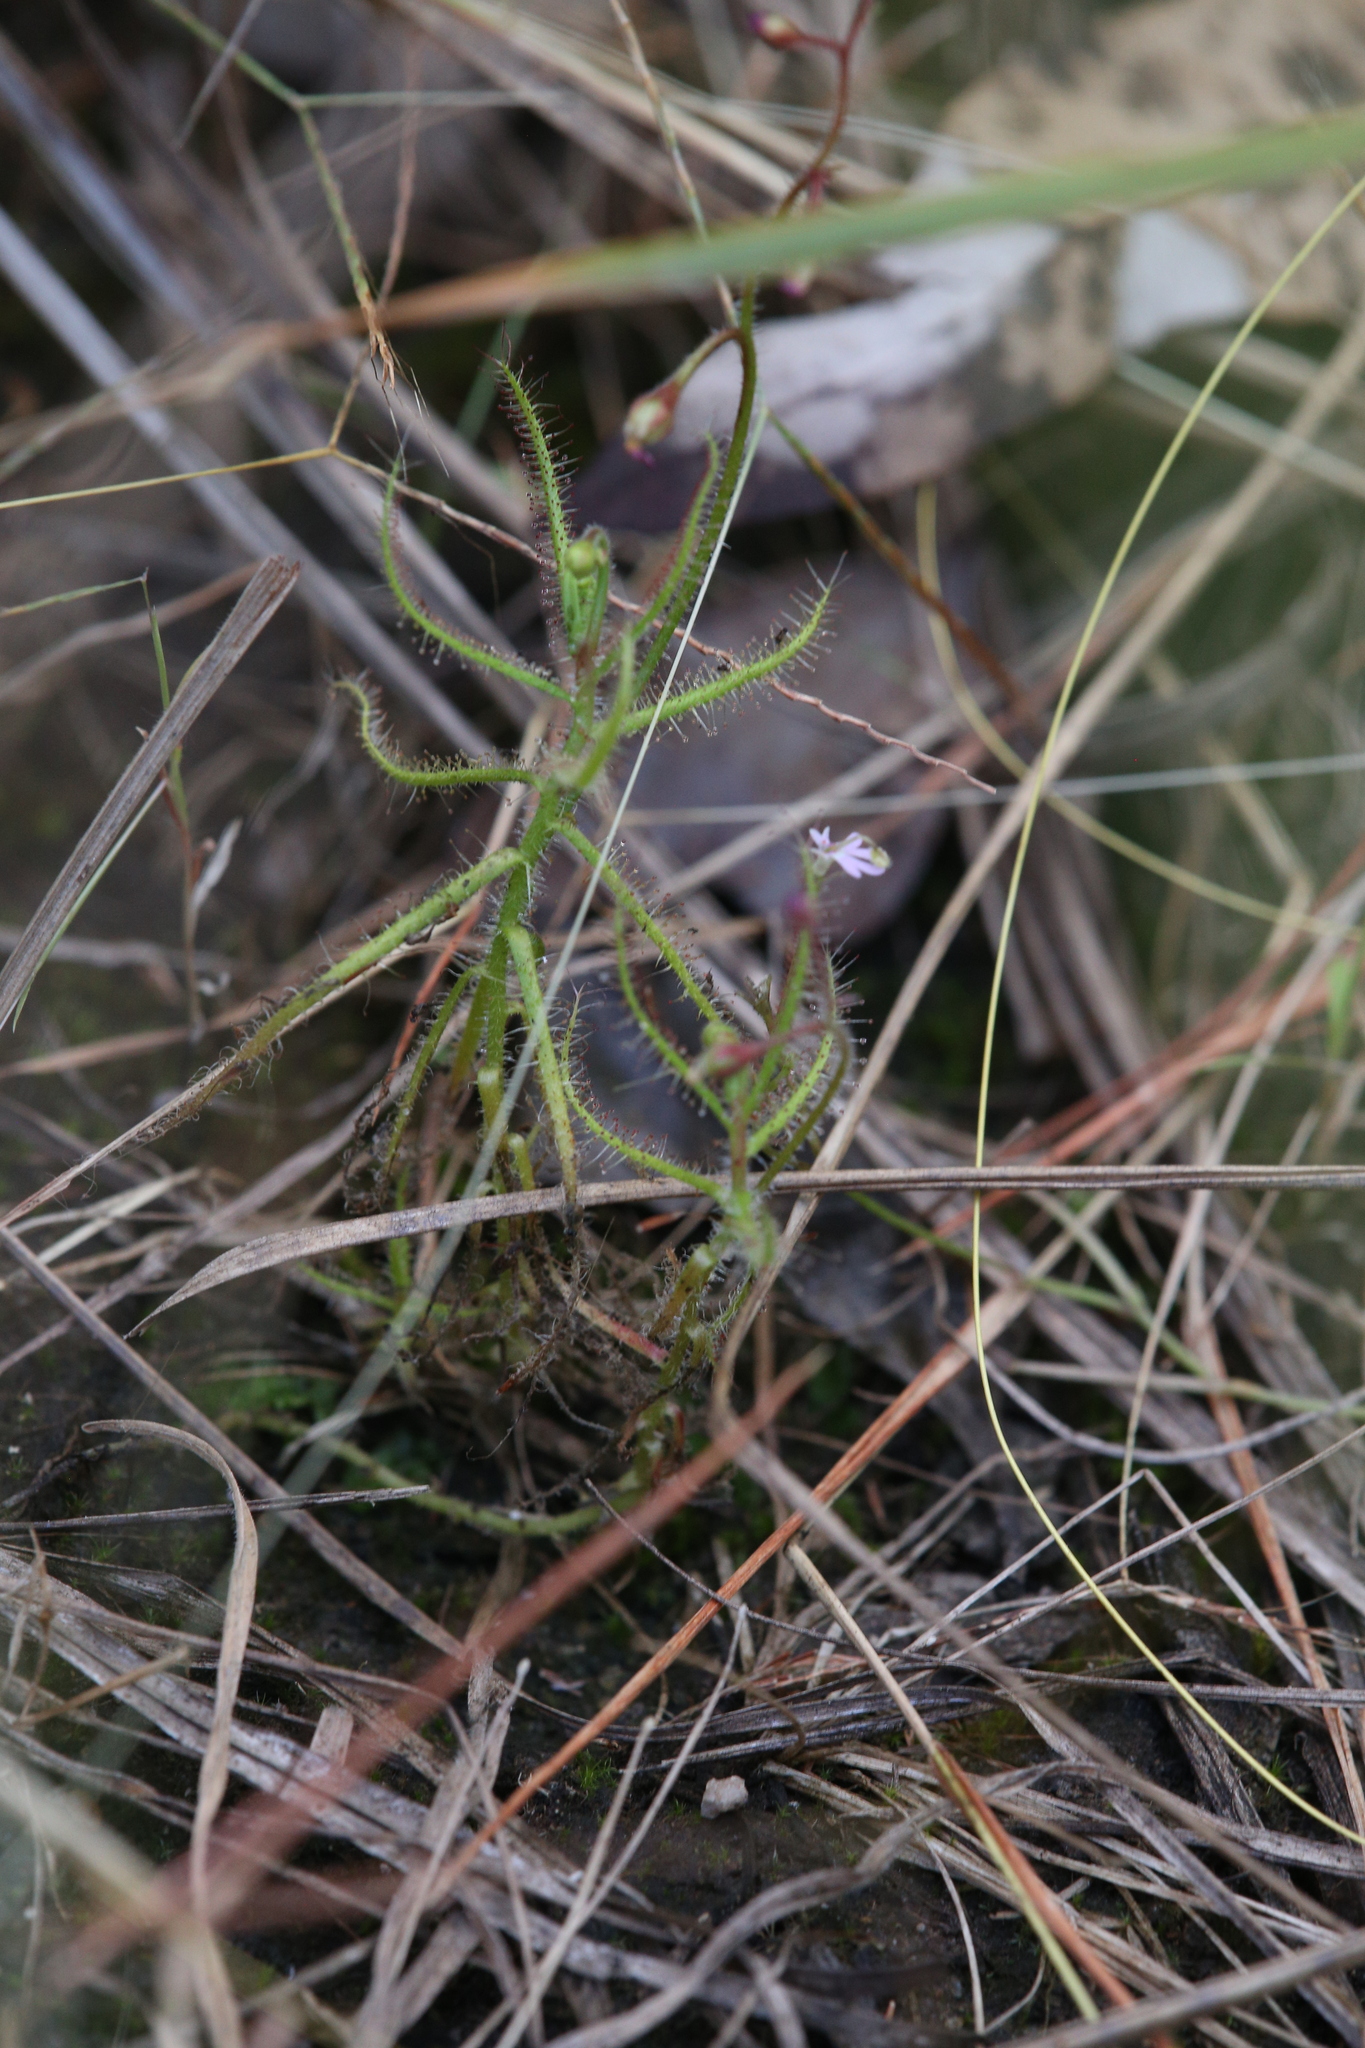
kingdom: Plantae
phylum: Tracheophyta
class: Magnoliopsida
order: Caryophyllales
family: Droseraceae
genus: Drosera
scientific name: Drosera aquatica
